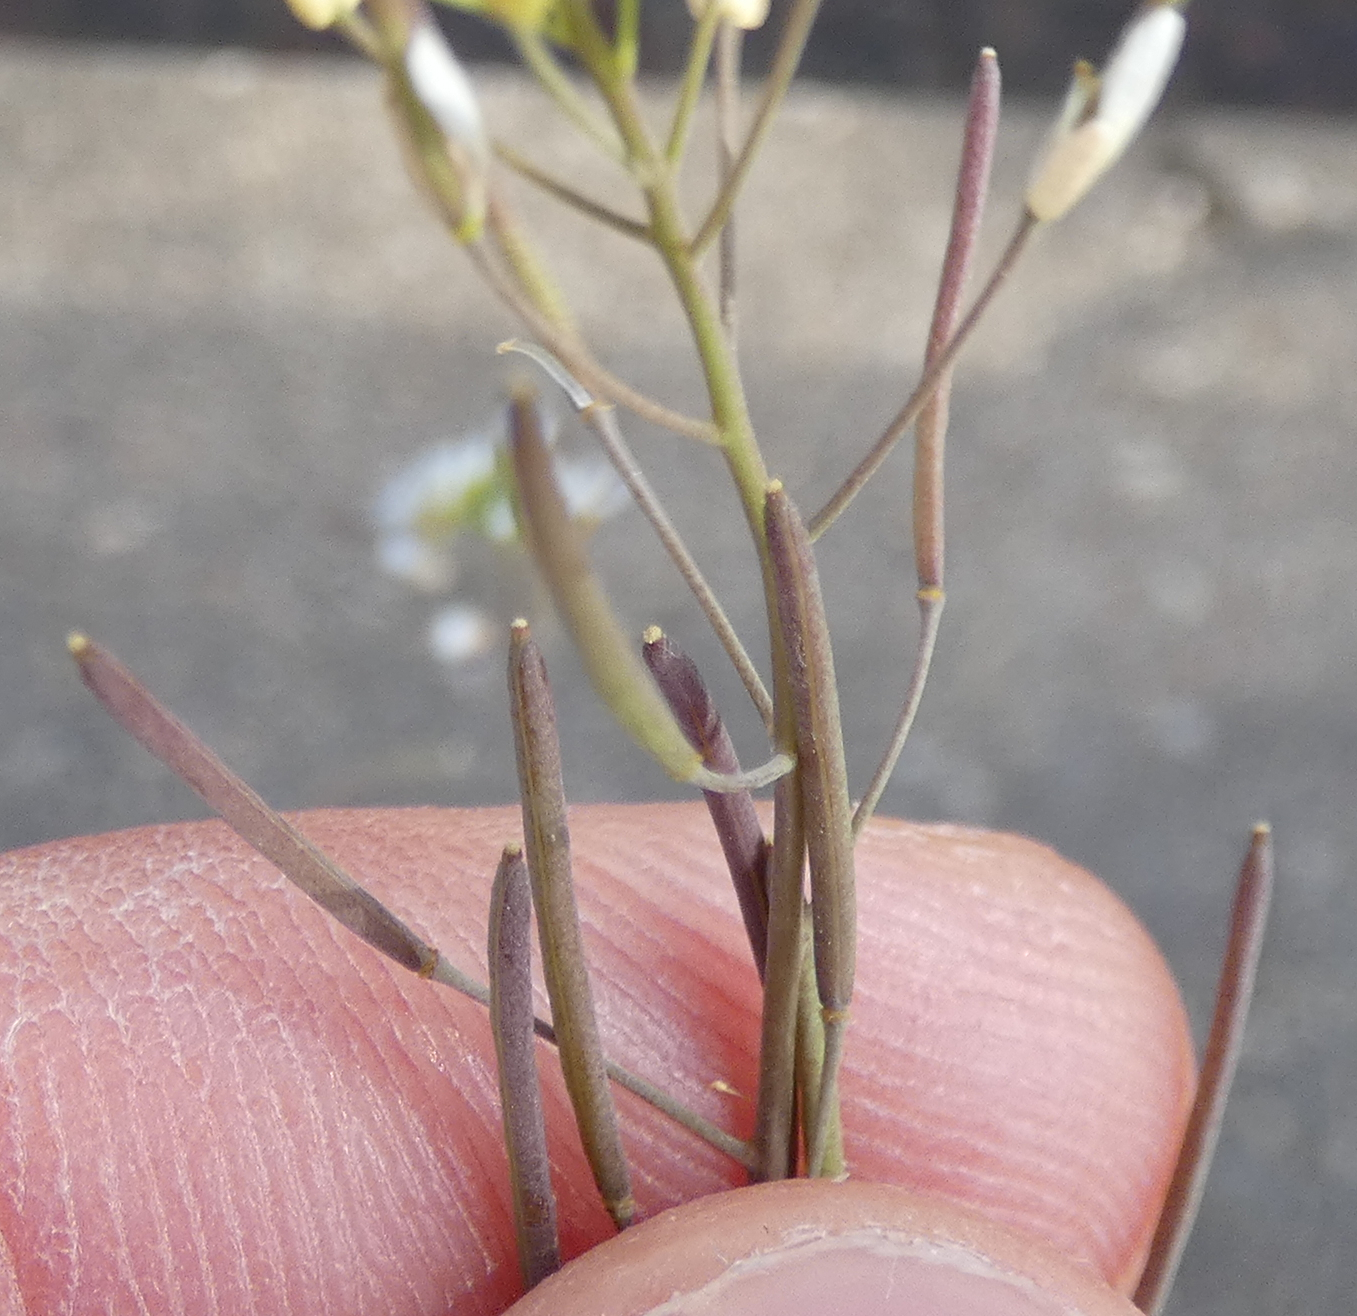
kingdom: Plantae
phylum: Tracheophyta
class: Magnoliopsida
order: Brassicales
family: Brassicaceae
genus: Arabidopsis
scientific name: Arabidopsis thaliana
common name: Thale cress
